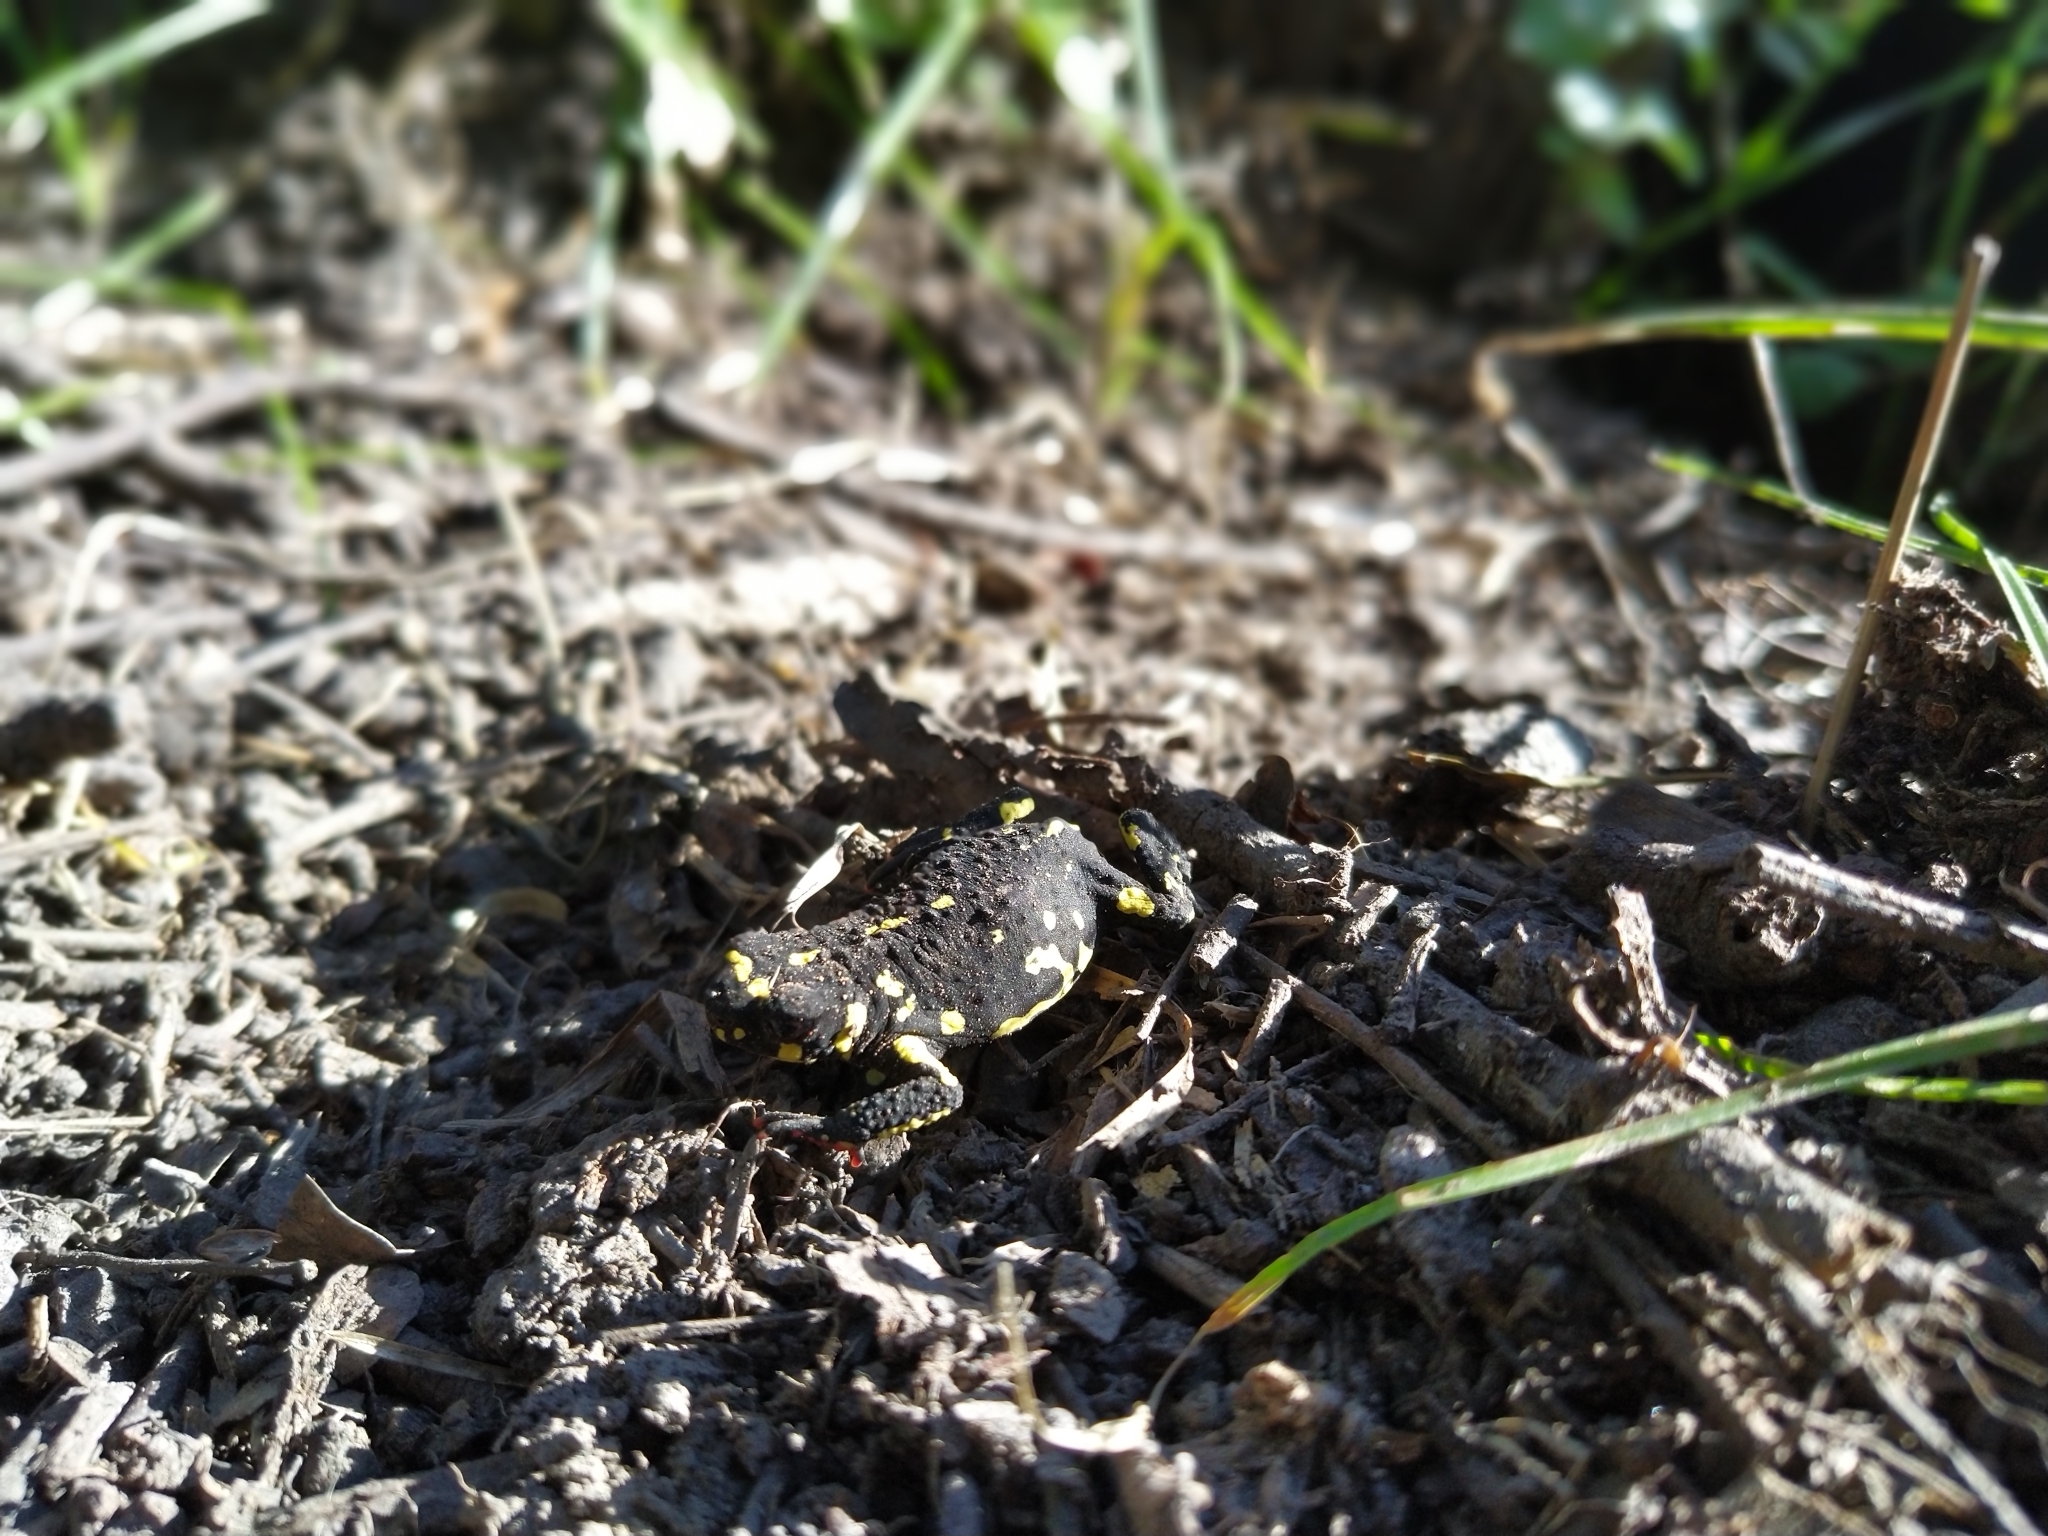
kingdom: Animalia
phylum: Chordata
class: Amphibia
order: Anura
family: Bufonidae
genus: Melanophryniscus
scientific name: Melanophryniscus klappenbachi
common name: Klappenbach’s red-bellied toad
